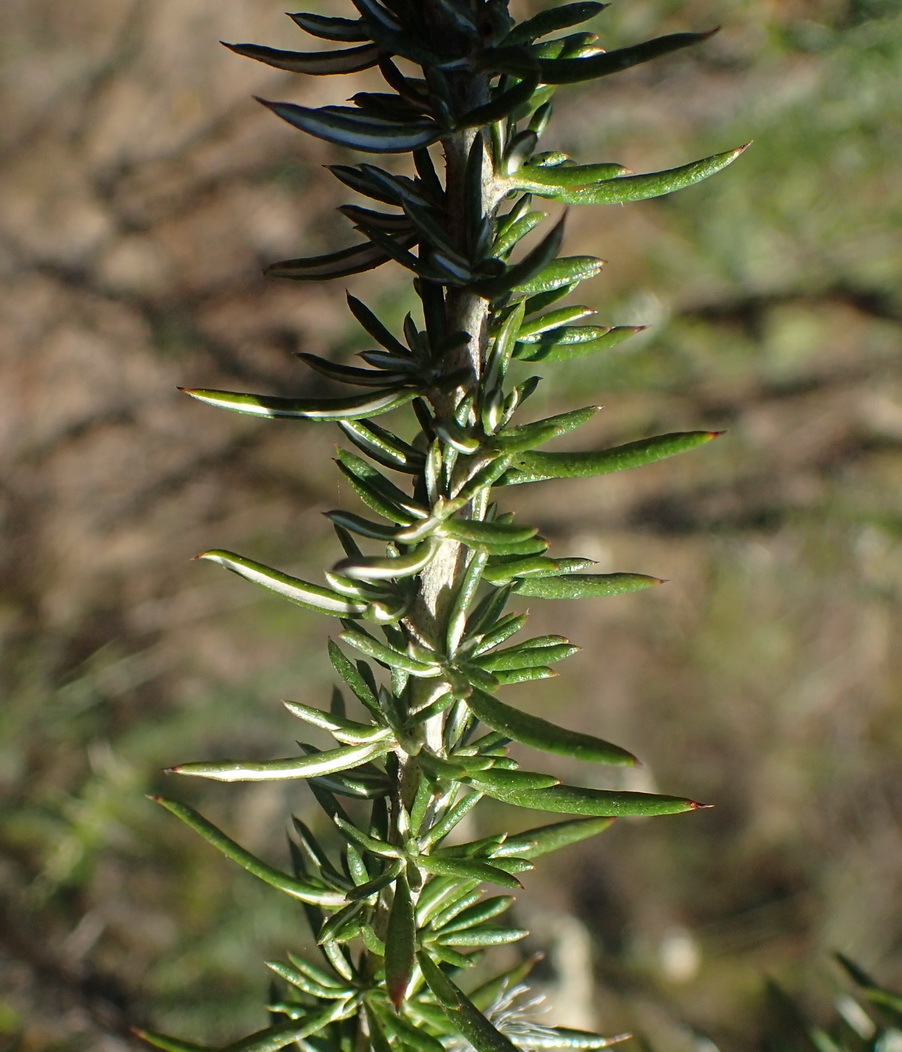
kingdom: Plantae
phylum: Tracheophyta
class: Magnoliopsida
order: Asterales
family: Asteraceae
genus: Metalasia
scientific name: Metalasia densa
